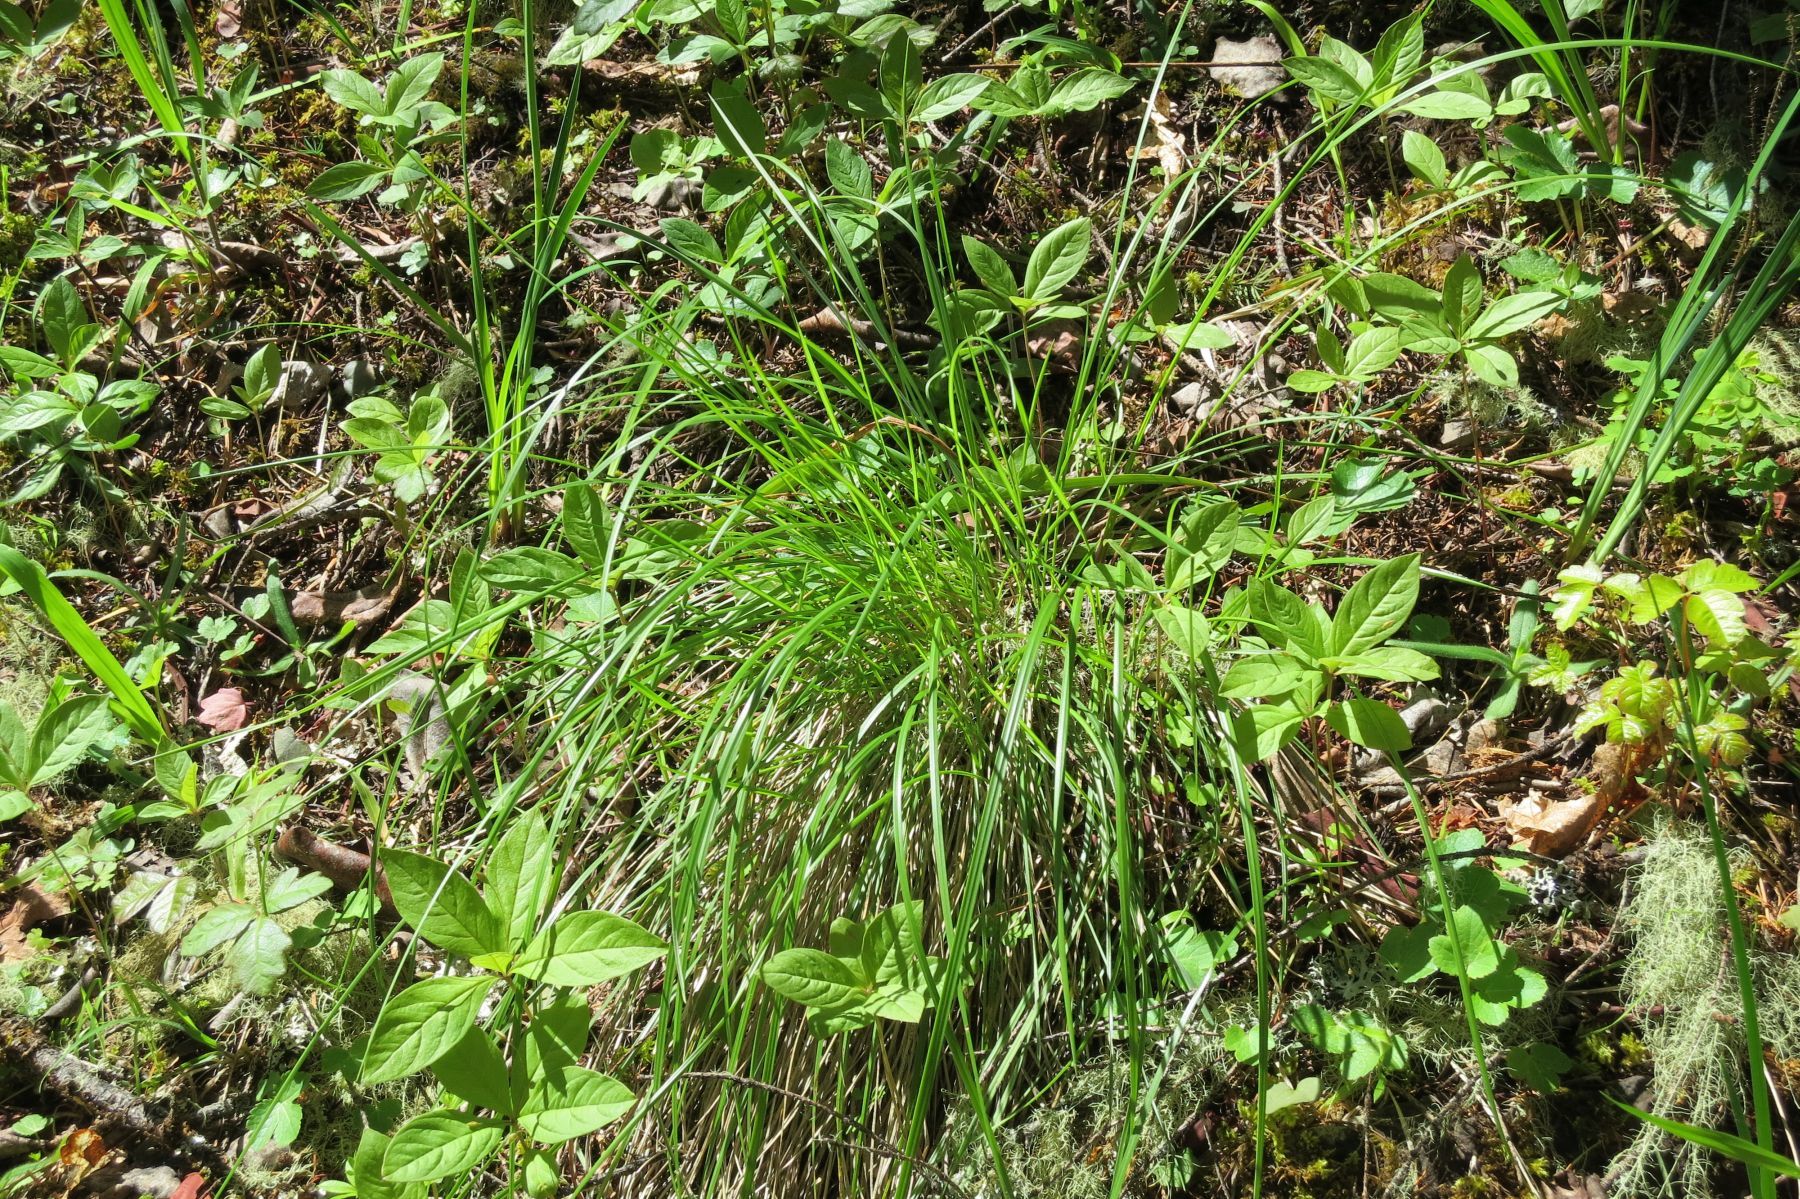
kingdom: Plantae
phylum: Tracheophyta
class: Liliopsida
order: Poales
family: Poaceae
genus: Festuca
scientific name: Festuca californica
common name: California fescue
